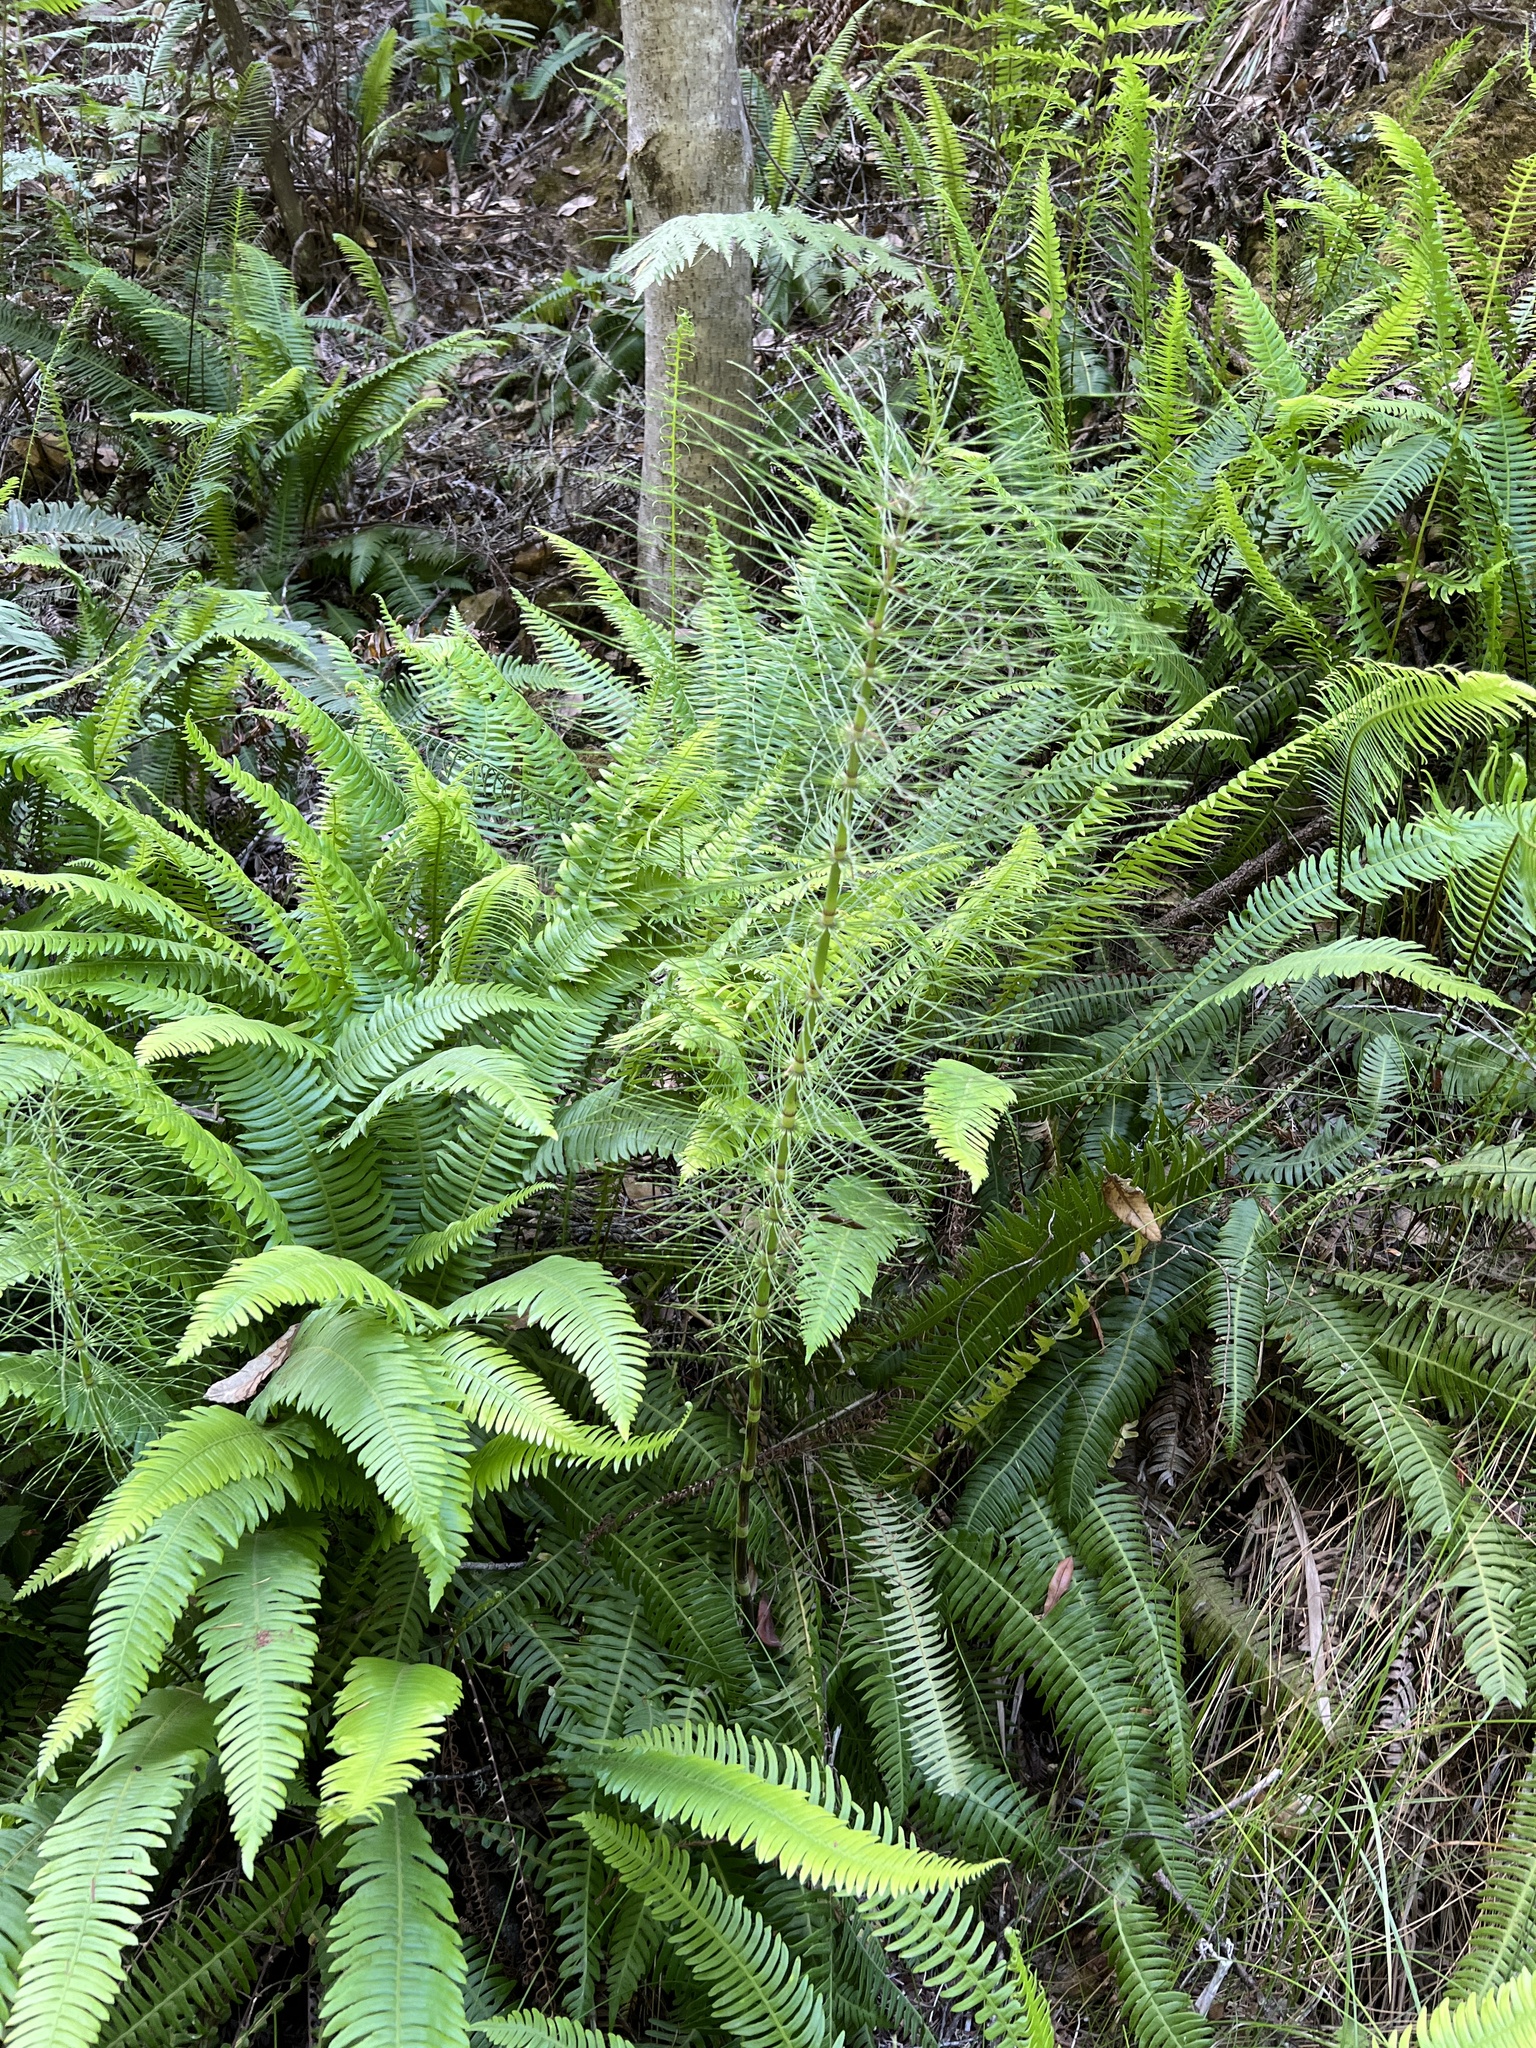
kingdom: Plantae
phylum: Tracheophyta
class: Polypodiopsida
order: Equisetales
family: Equisetaceae
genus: Equisetum
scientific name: Equisetum braunii
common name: Braun's horsetail
